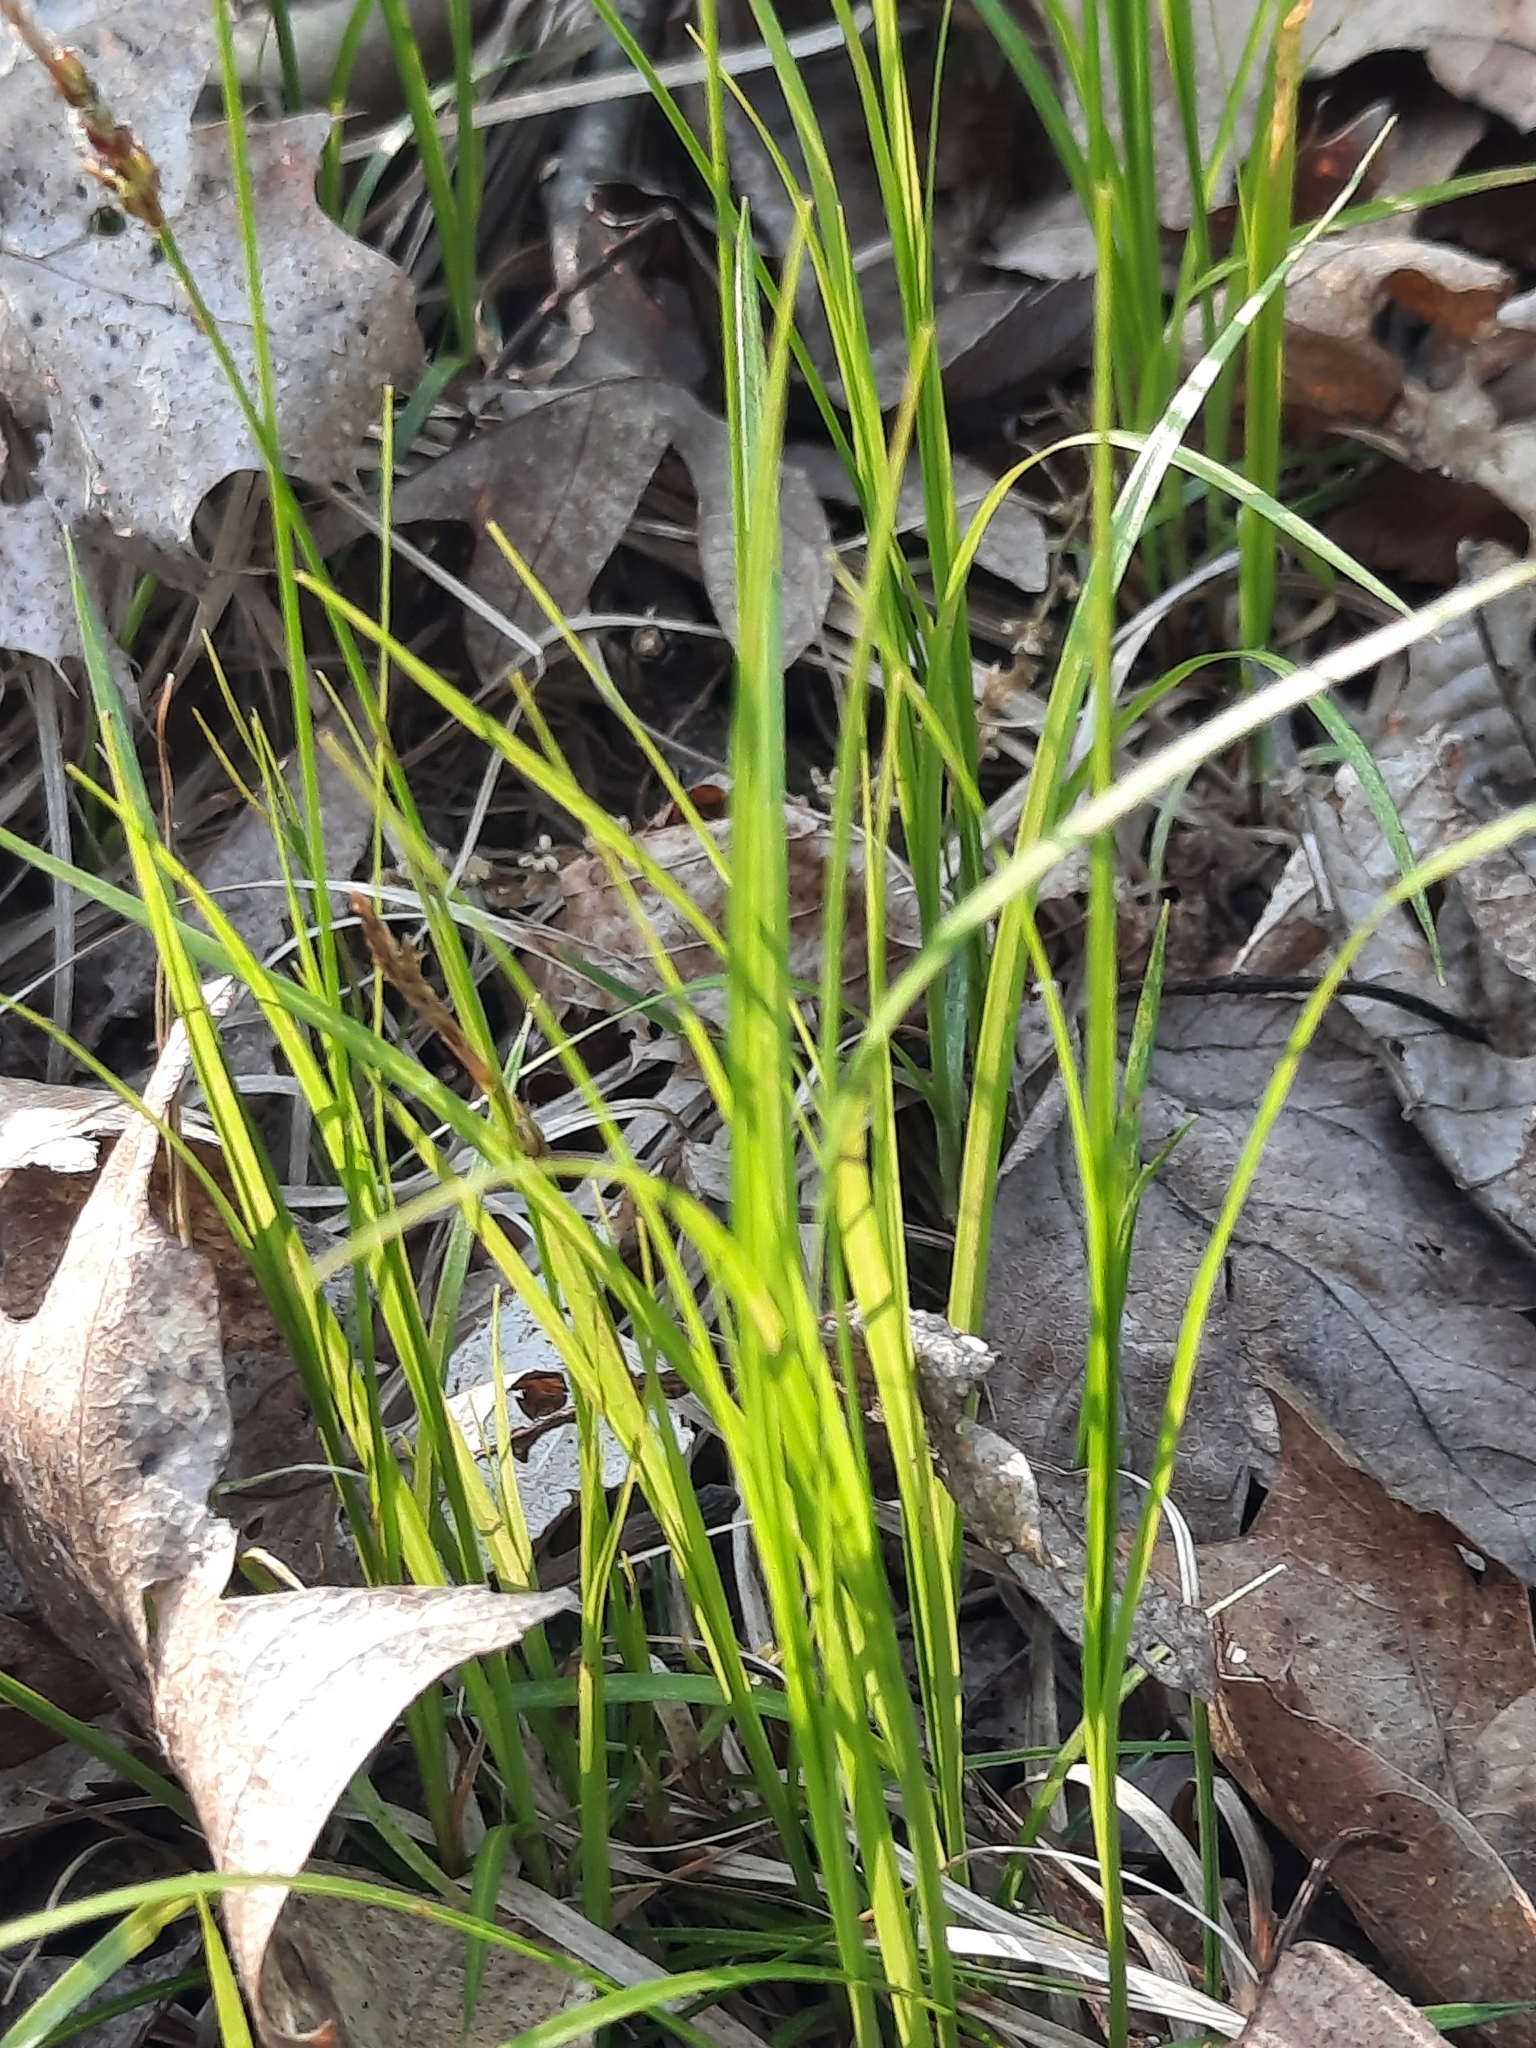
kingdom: Plantae
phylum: Tracheophyta
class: Liliopsida
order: Poales
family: Cyperaceae
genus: Carex
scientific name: Carex pensylvanica
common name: Common oak sedge
